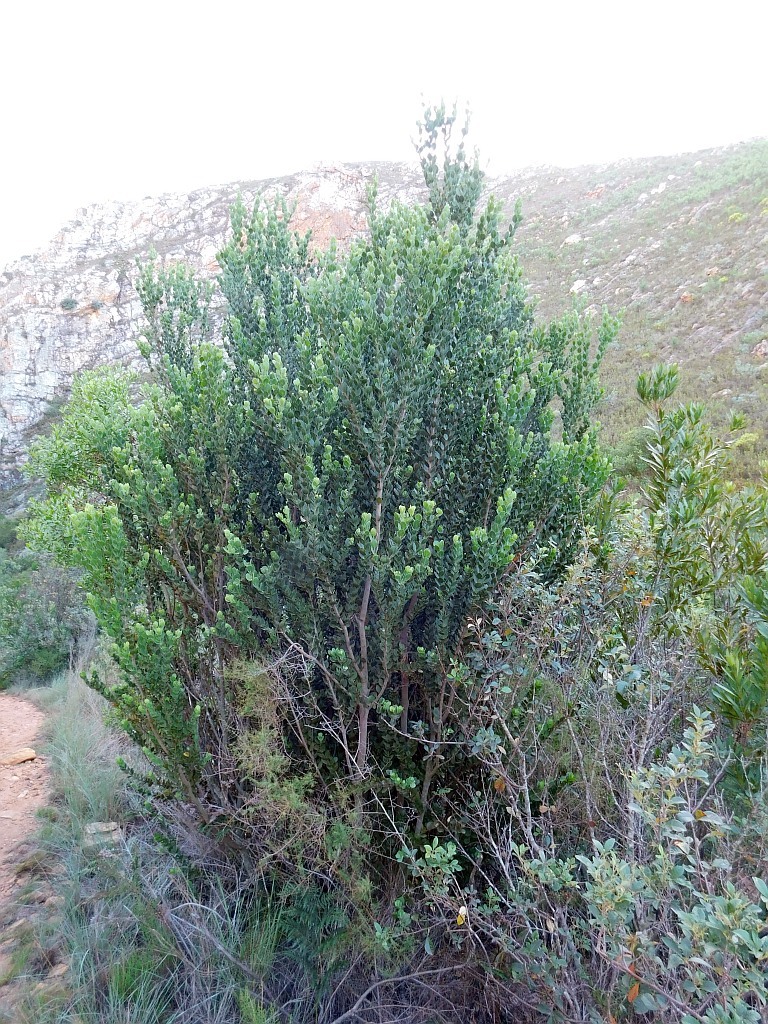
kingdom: Plantae
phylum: Tracheophyta
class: Magnoliopsida
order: Santalales
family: Santalaceae
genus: Osyris
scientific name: Osyris compressa
